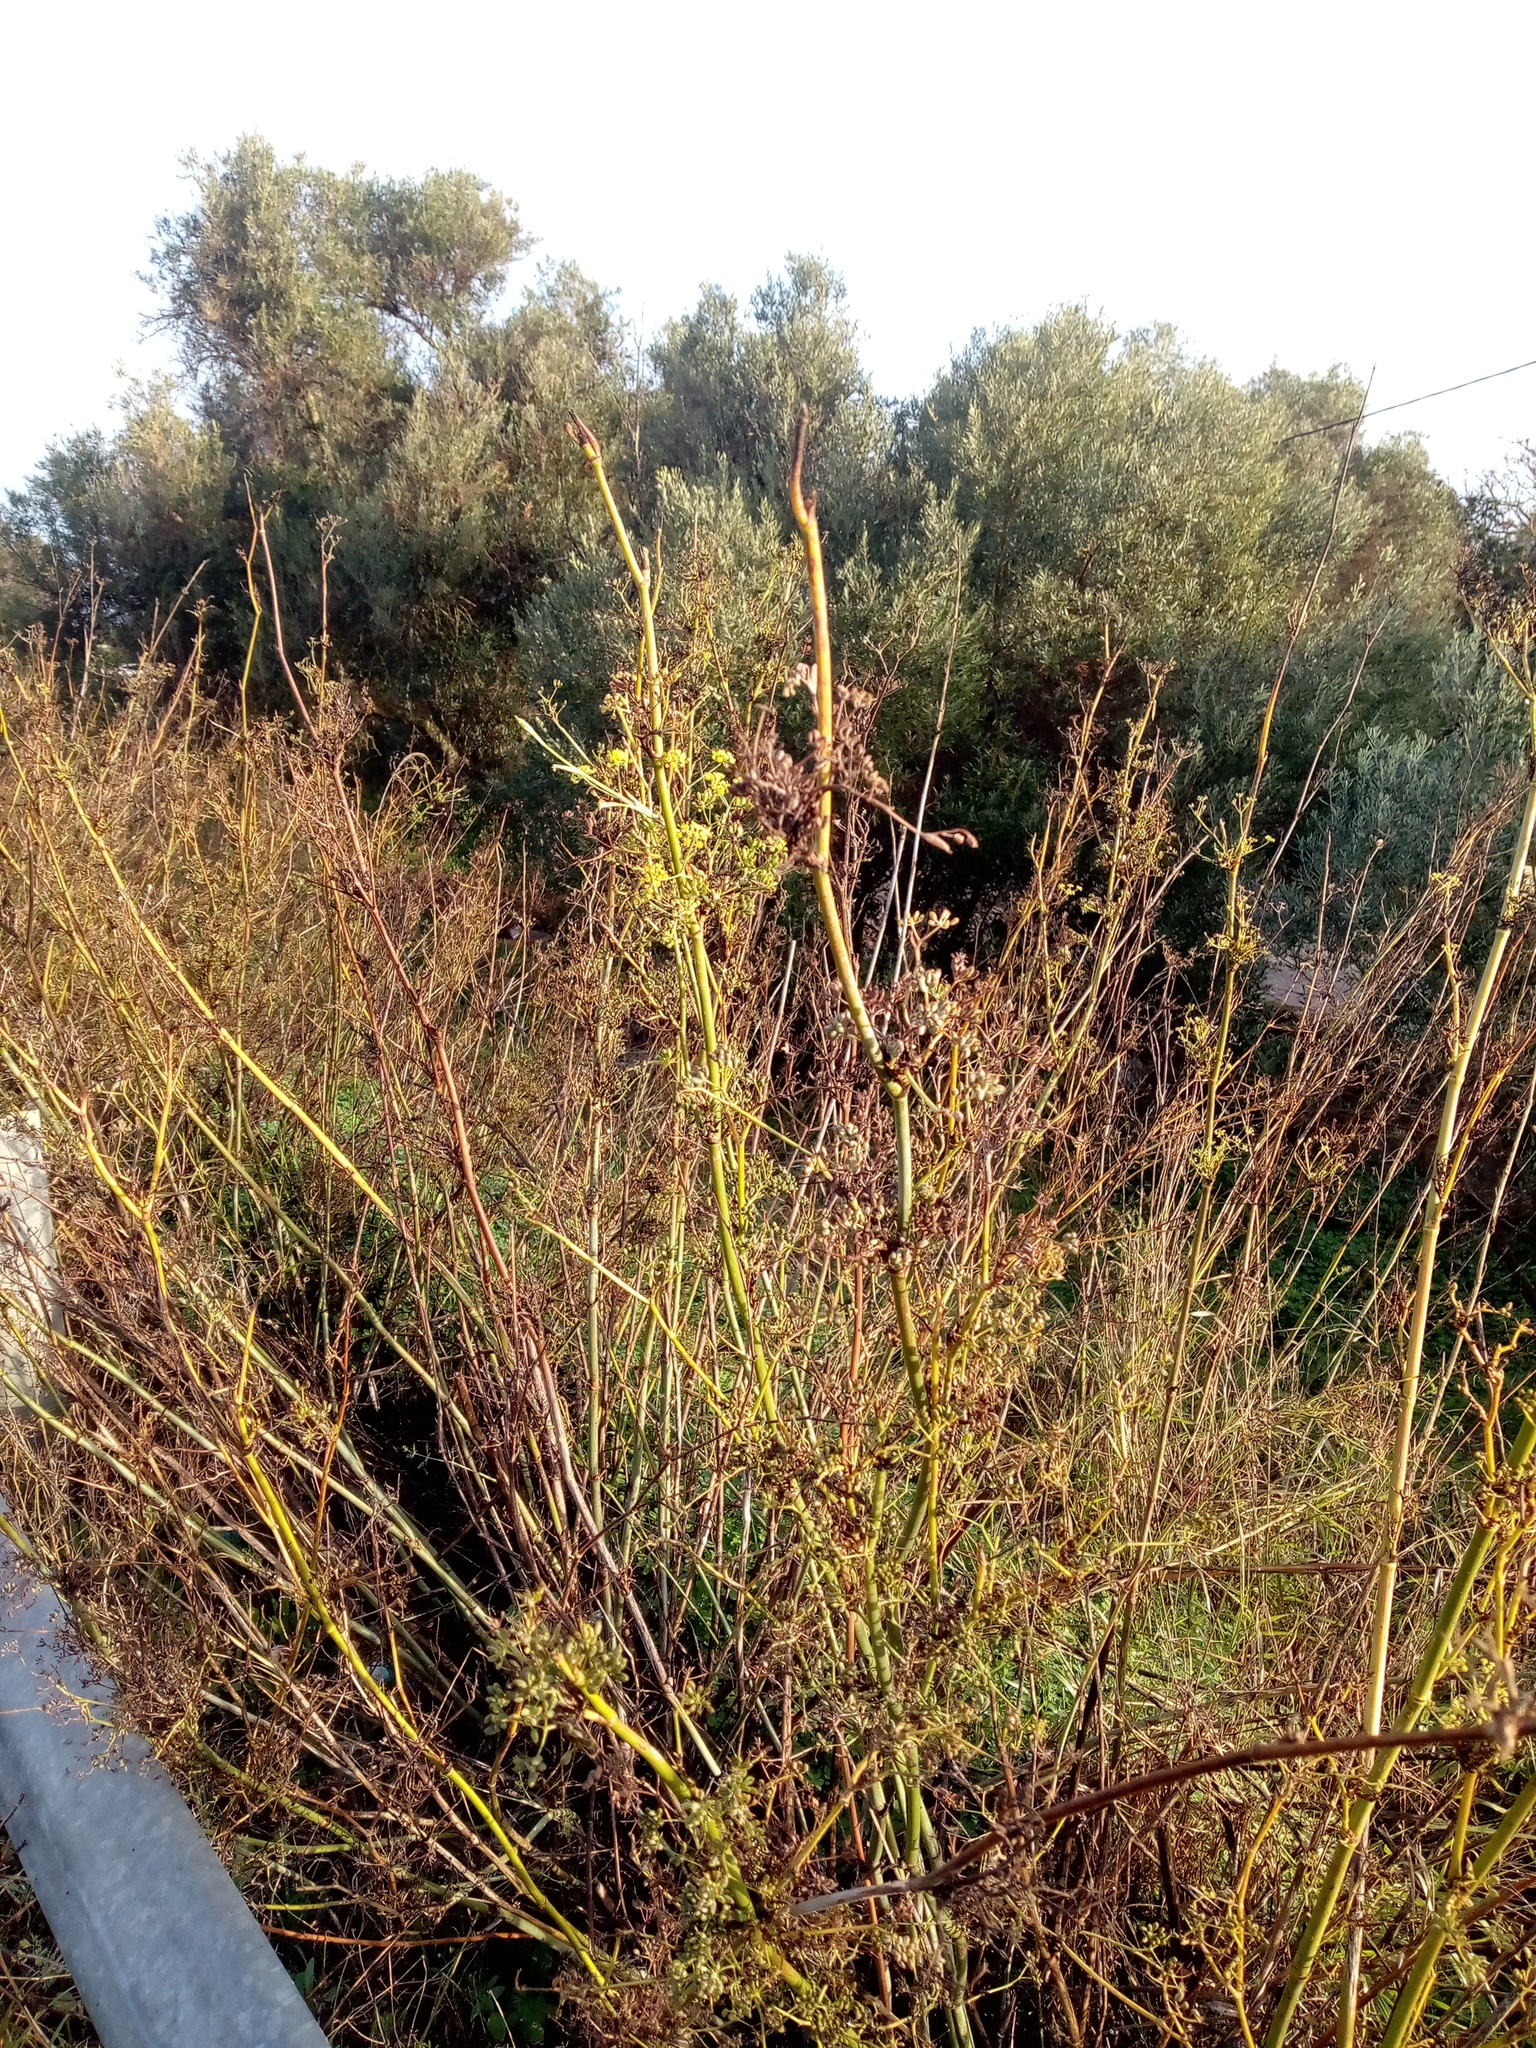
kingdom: Plantae
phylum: Tracheophyta
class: Magnoliopsida
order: Apiales
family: Apiaceae
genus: Foeniculum
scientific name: Foeniculum vulgare
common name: Fennel
